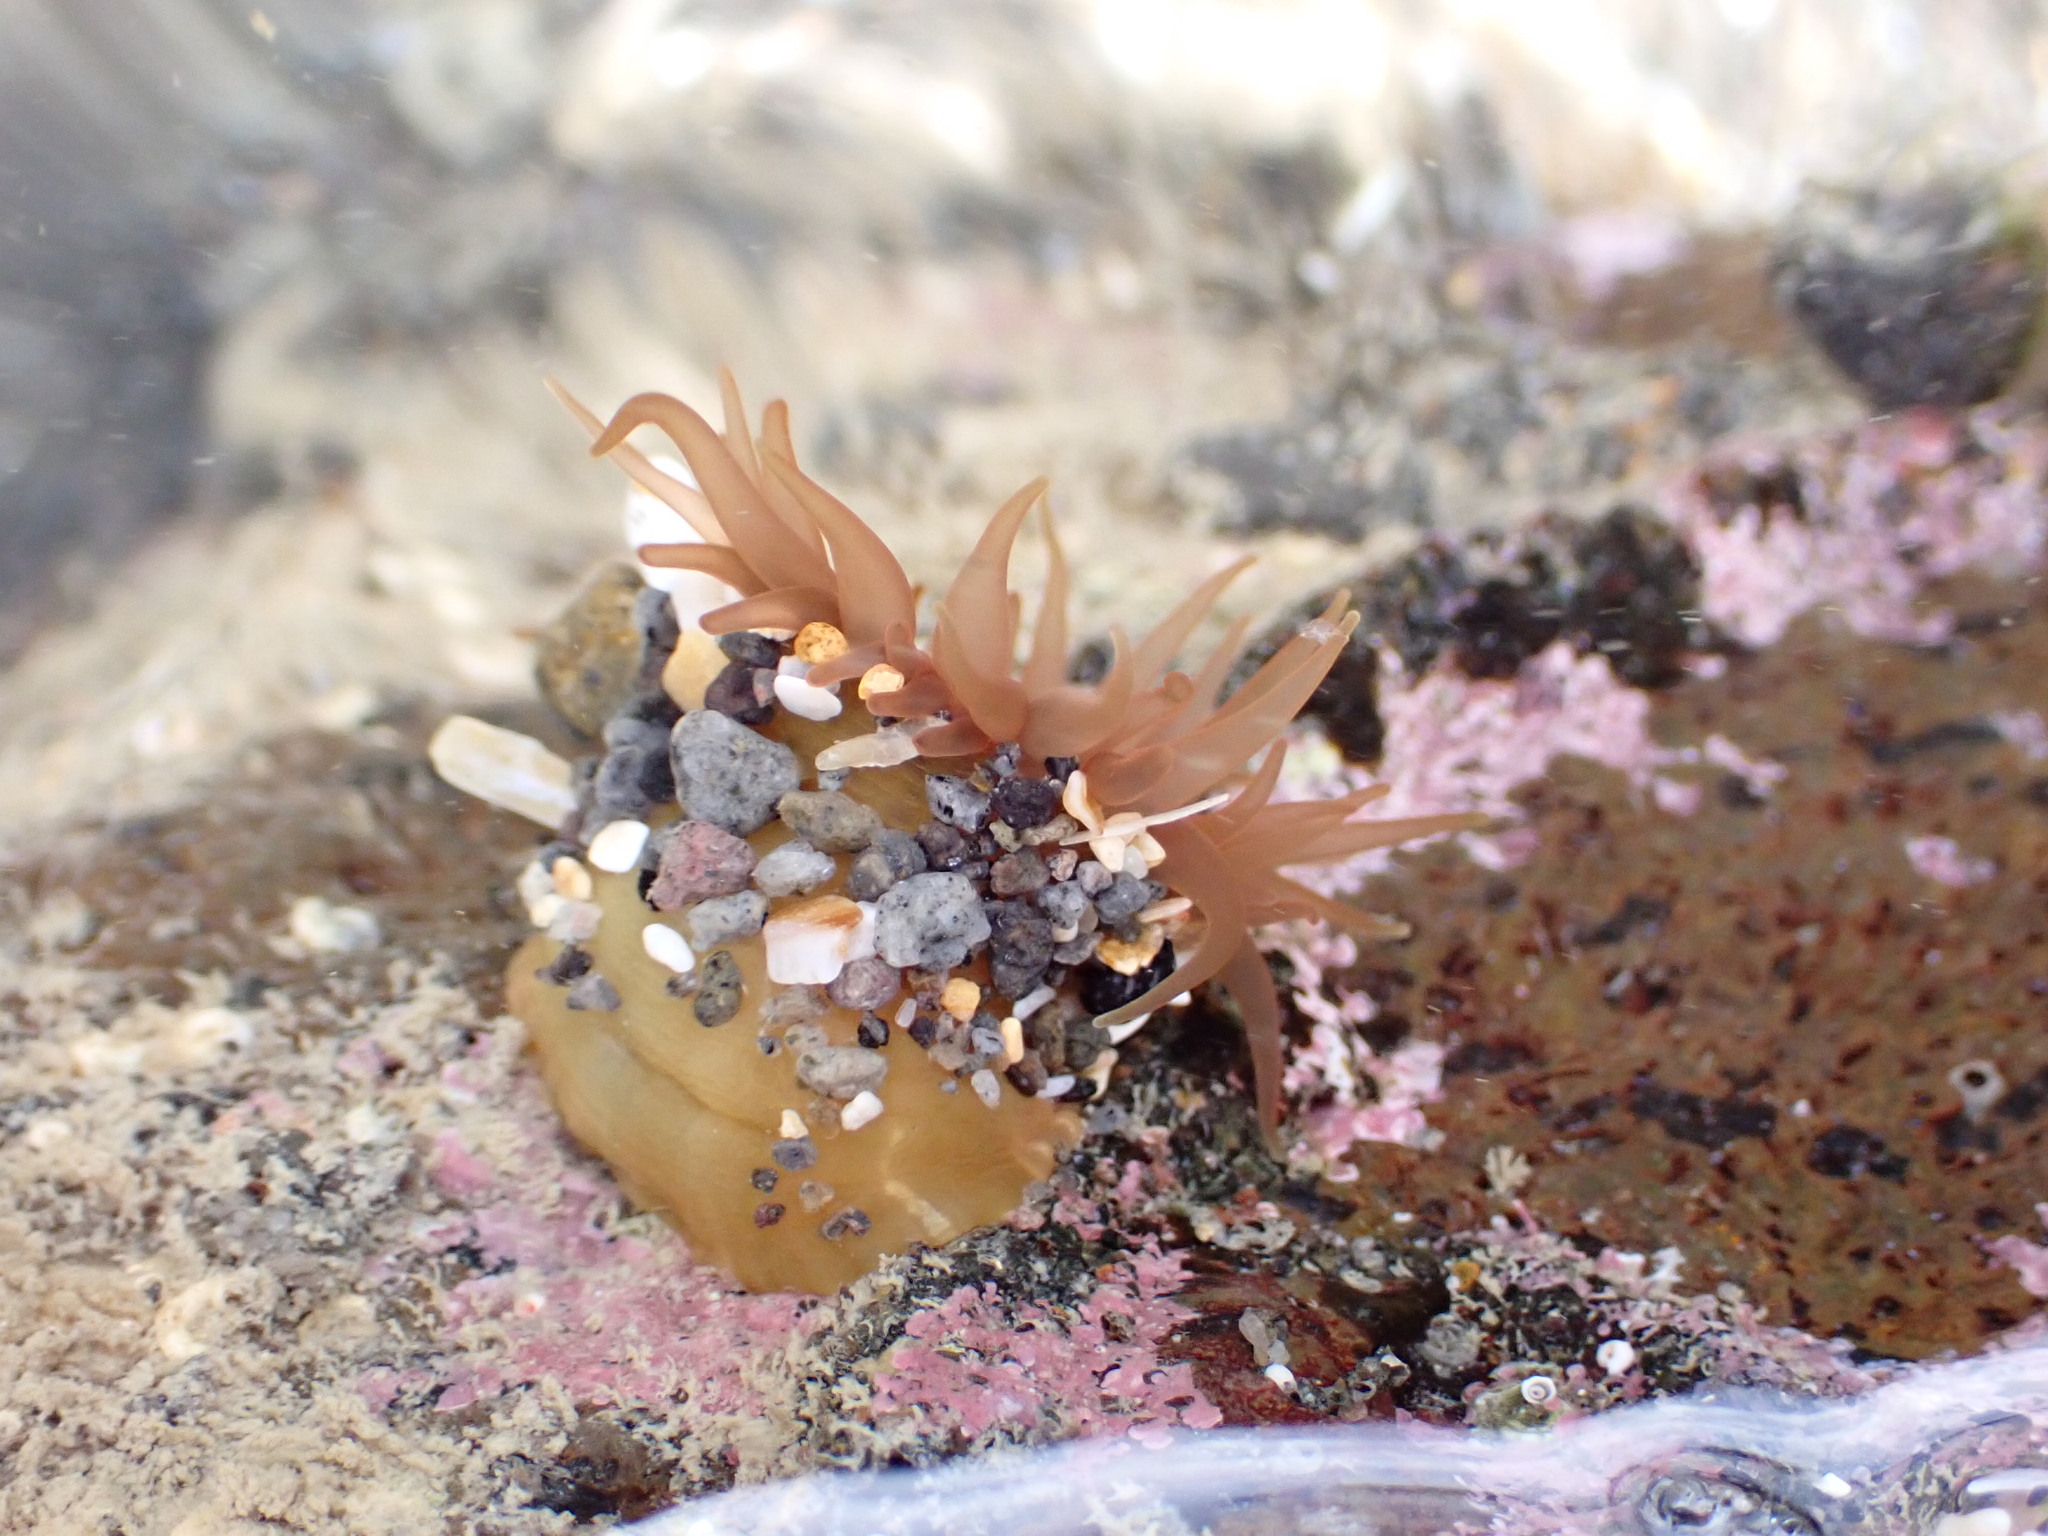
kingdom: Animalia
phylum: Cnidaria
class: Anthozoa
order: Actiniaria
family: Actiniidae
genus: Isactinia
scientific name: Isactinia olivacea
